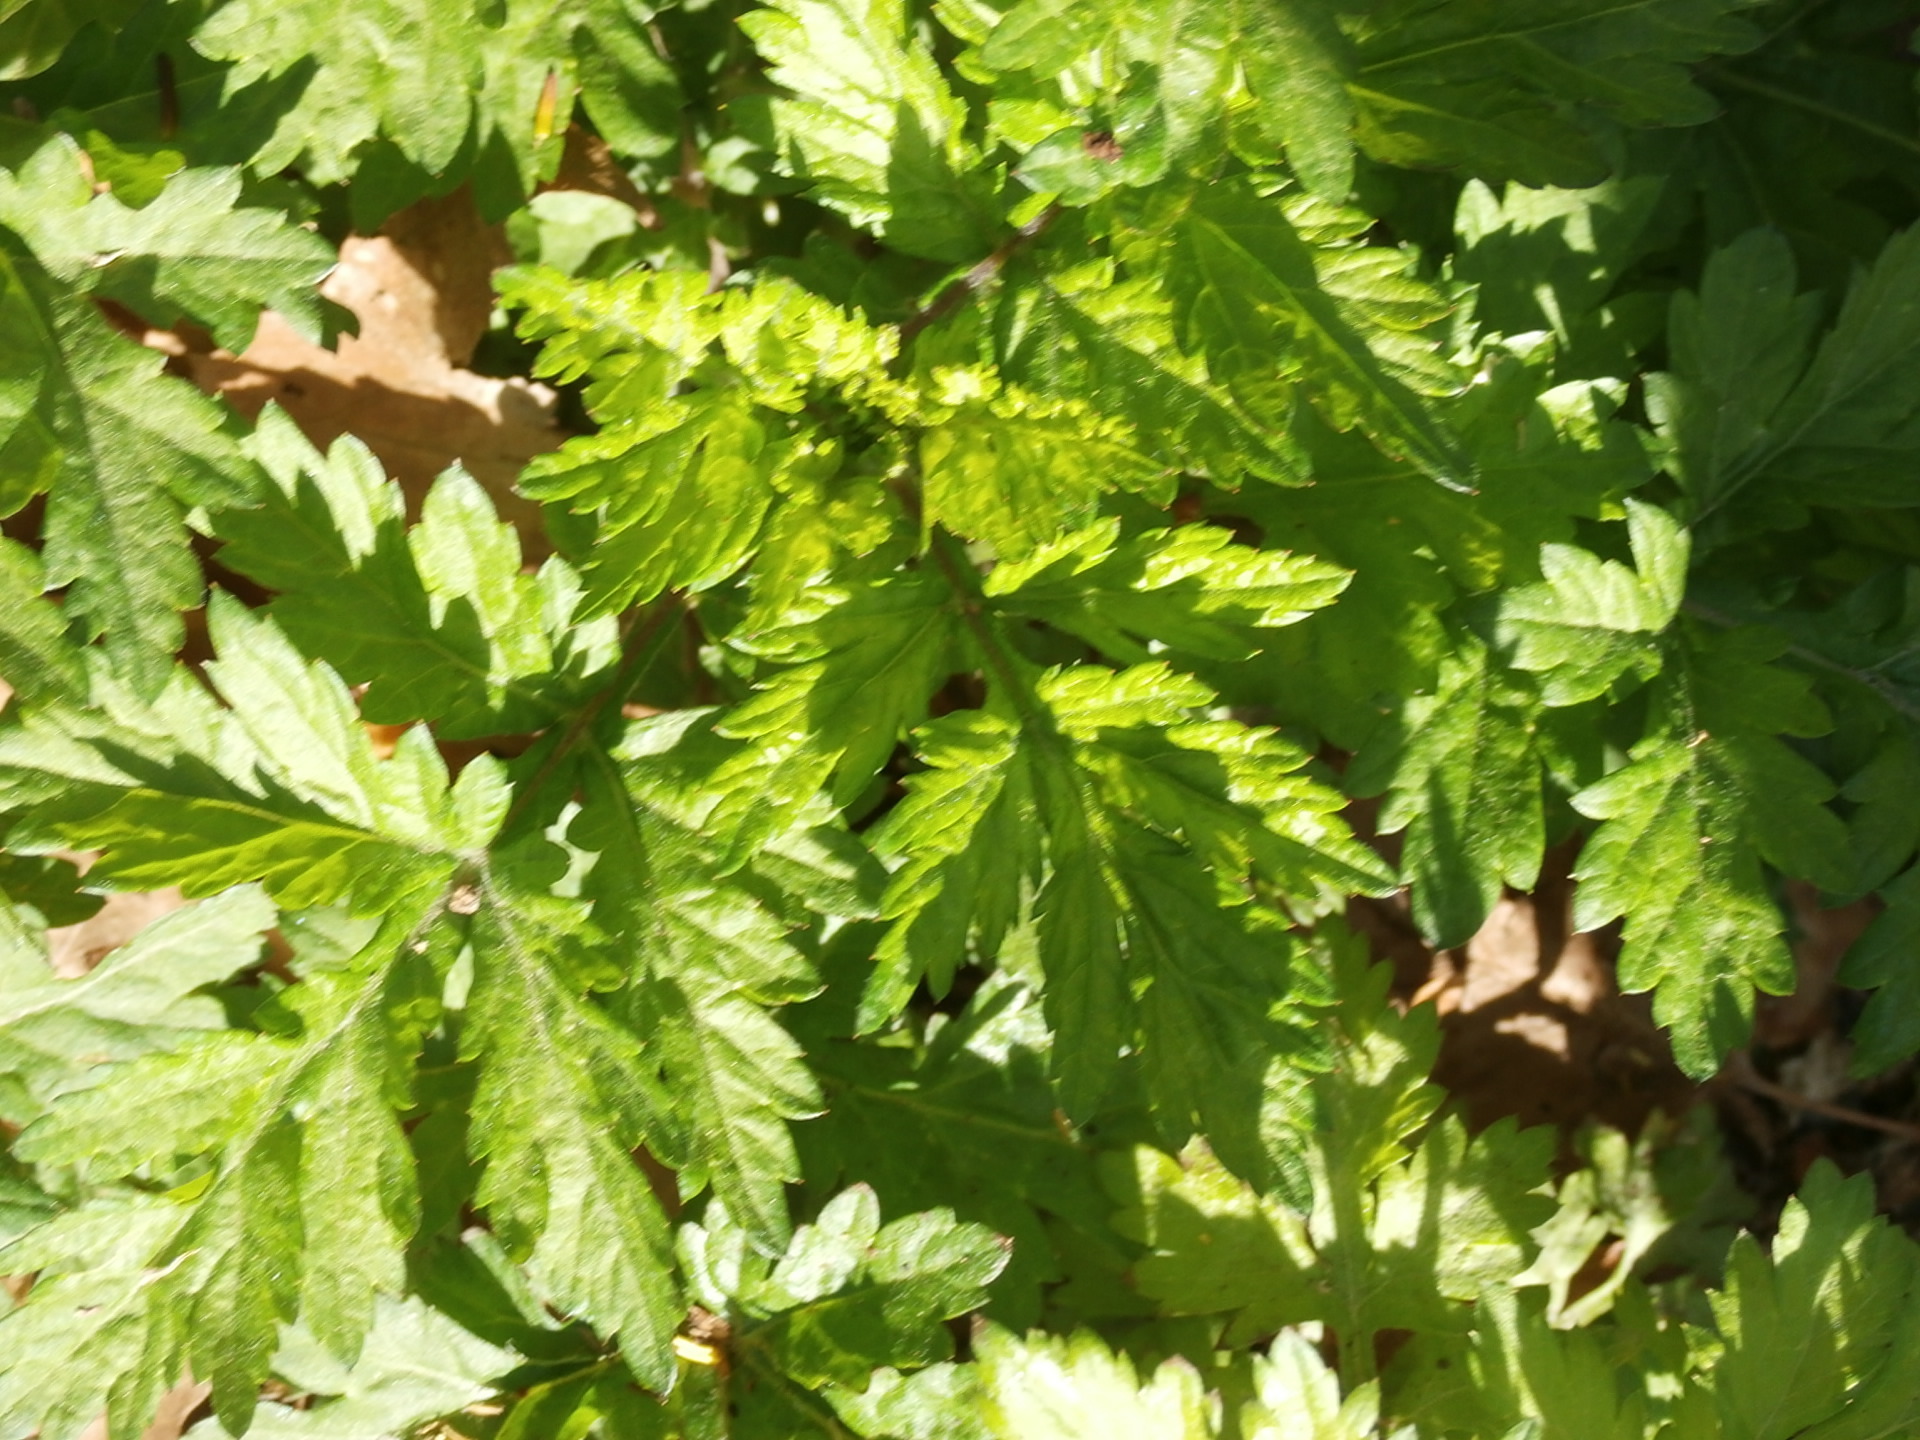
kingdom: Plantae
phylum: Tracheophyta
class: Magnoliopsida
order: Asterales
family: Asteraceae
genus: Artemisia
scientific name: Artemisia vulgaris
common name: Mugwort
